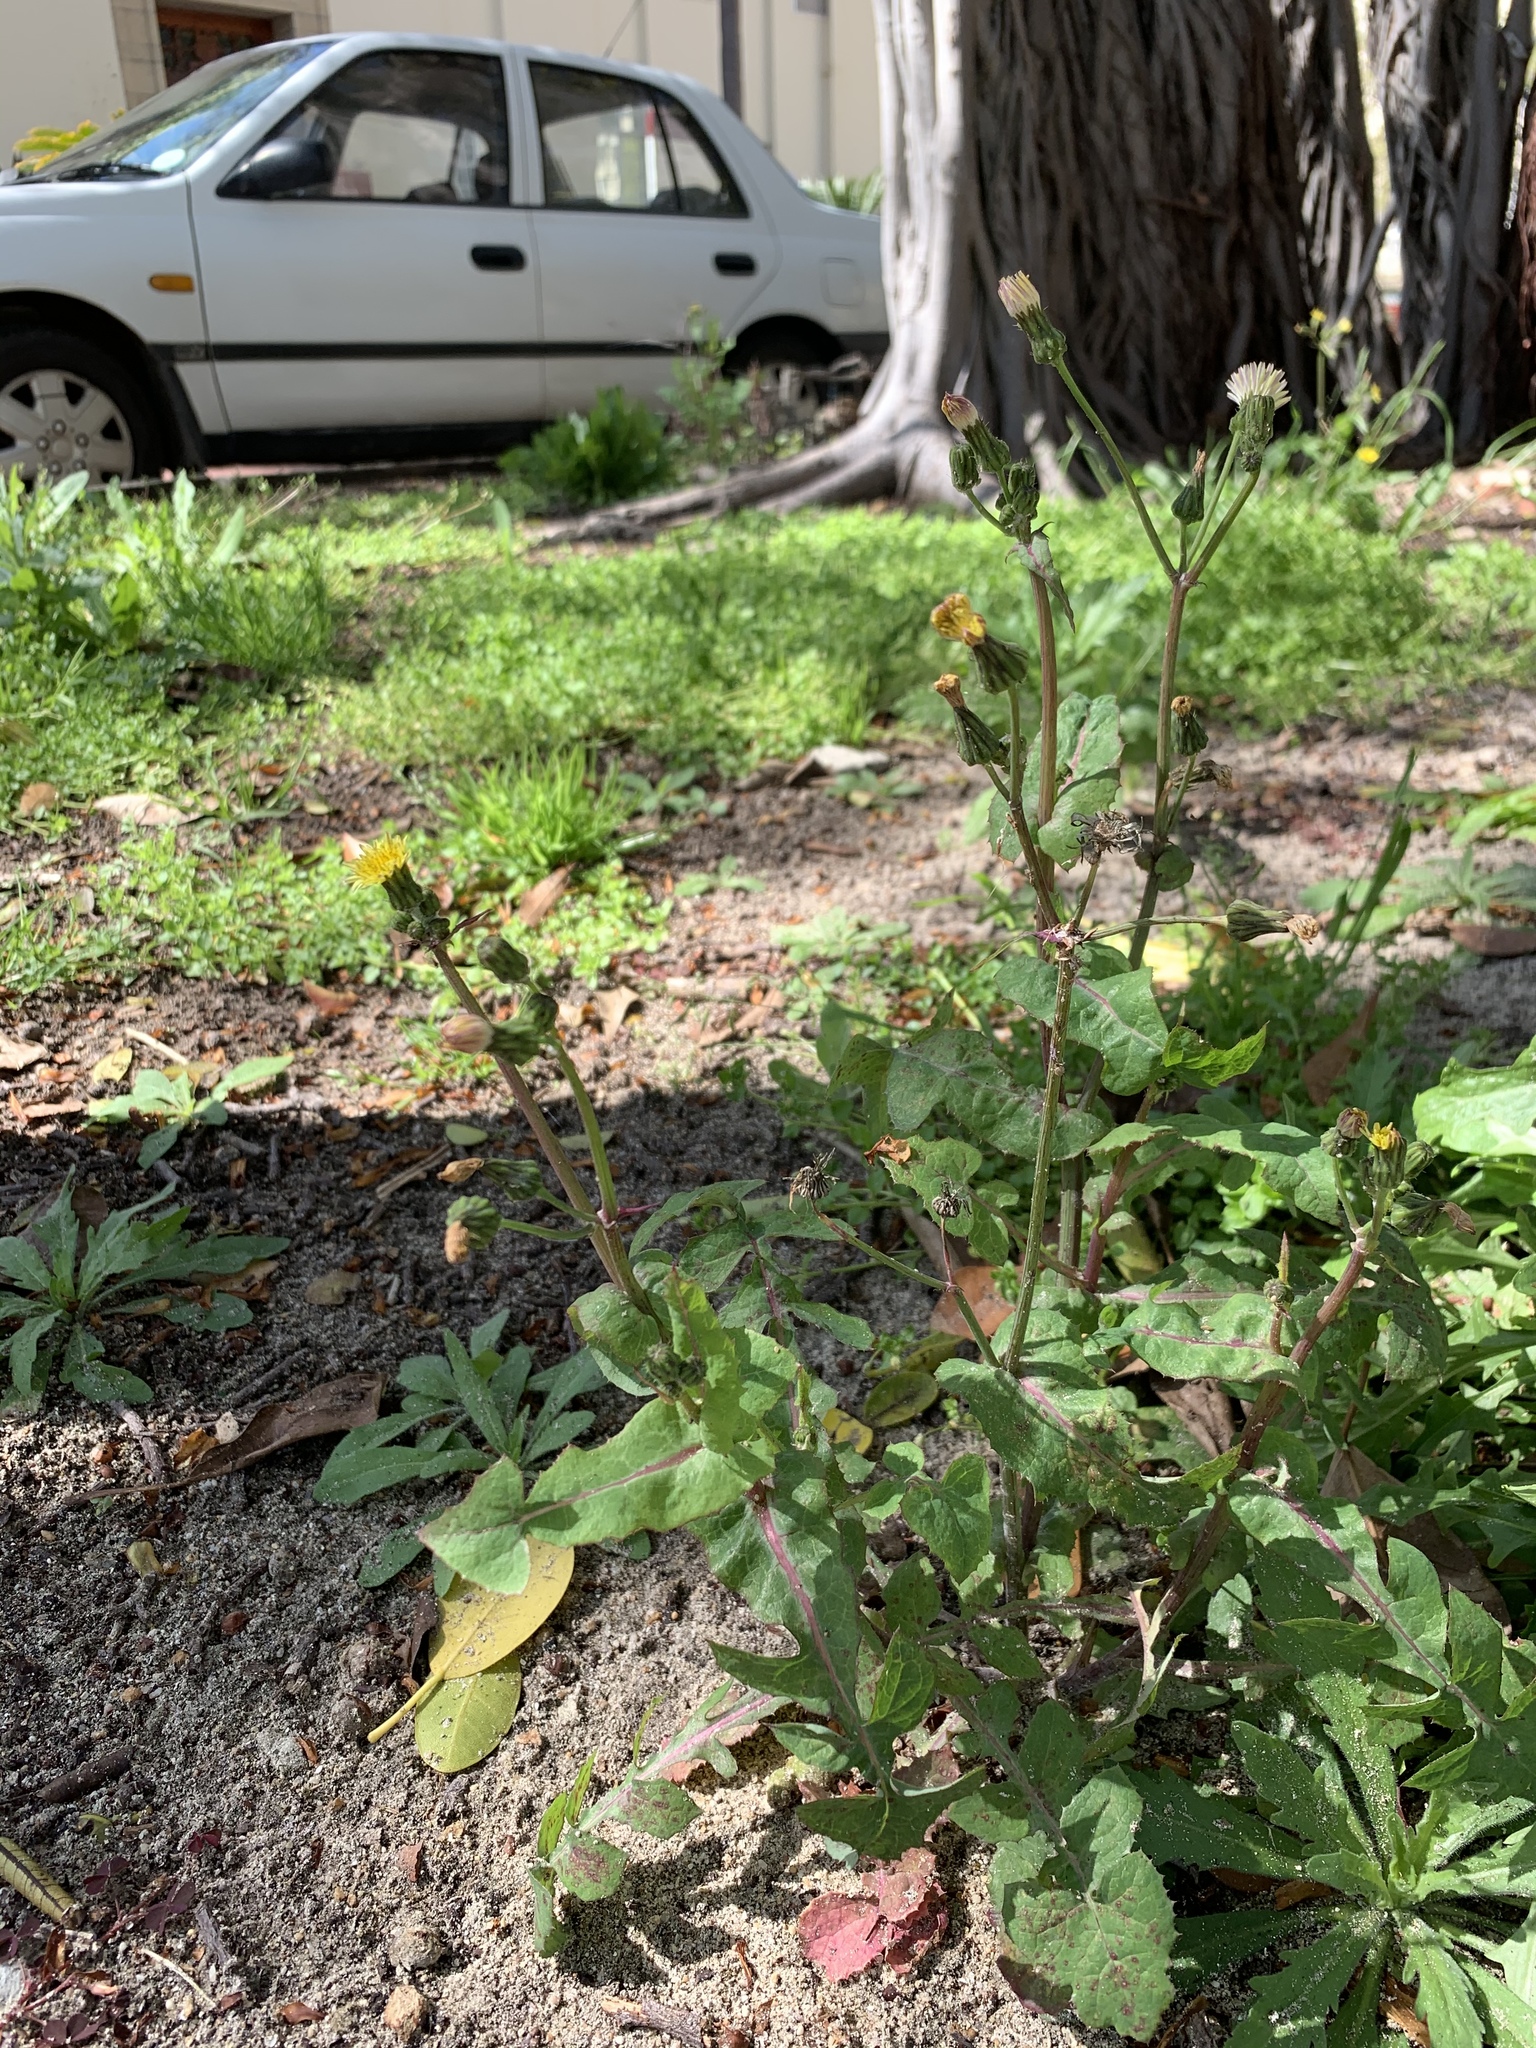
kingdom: Plantae
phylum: Tracheophyta
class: Magnoliopsida
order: Asterales
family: Asteraceae
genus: Sonchus
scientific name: Sonchus oleraceus
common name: Common sowthistle
